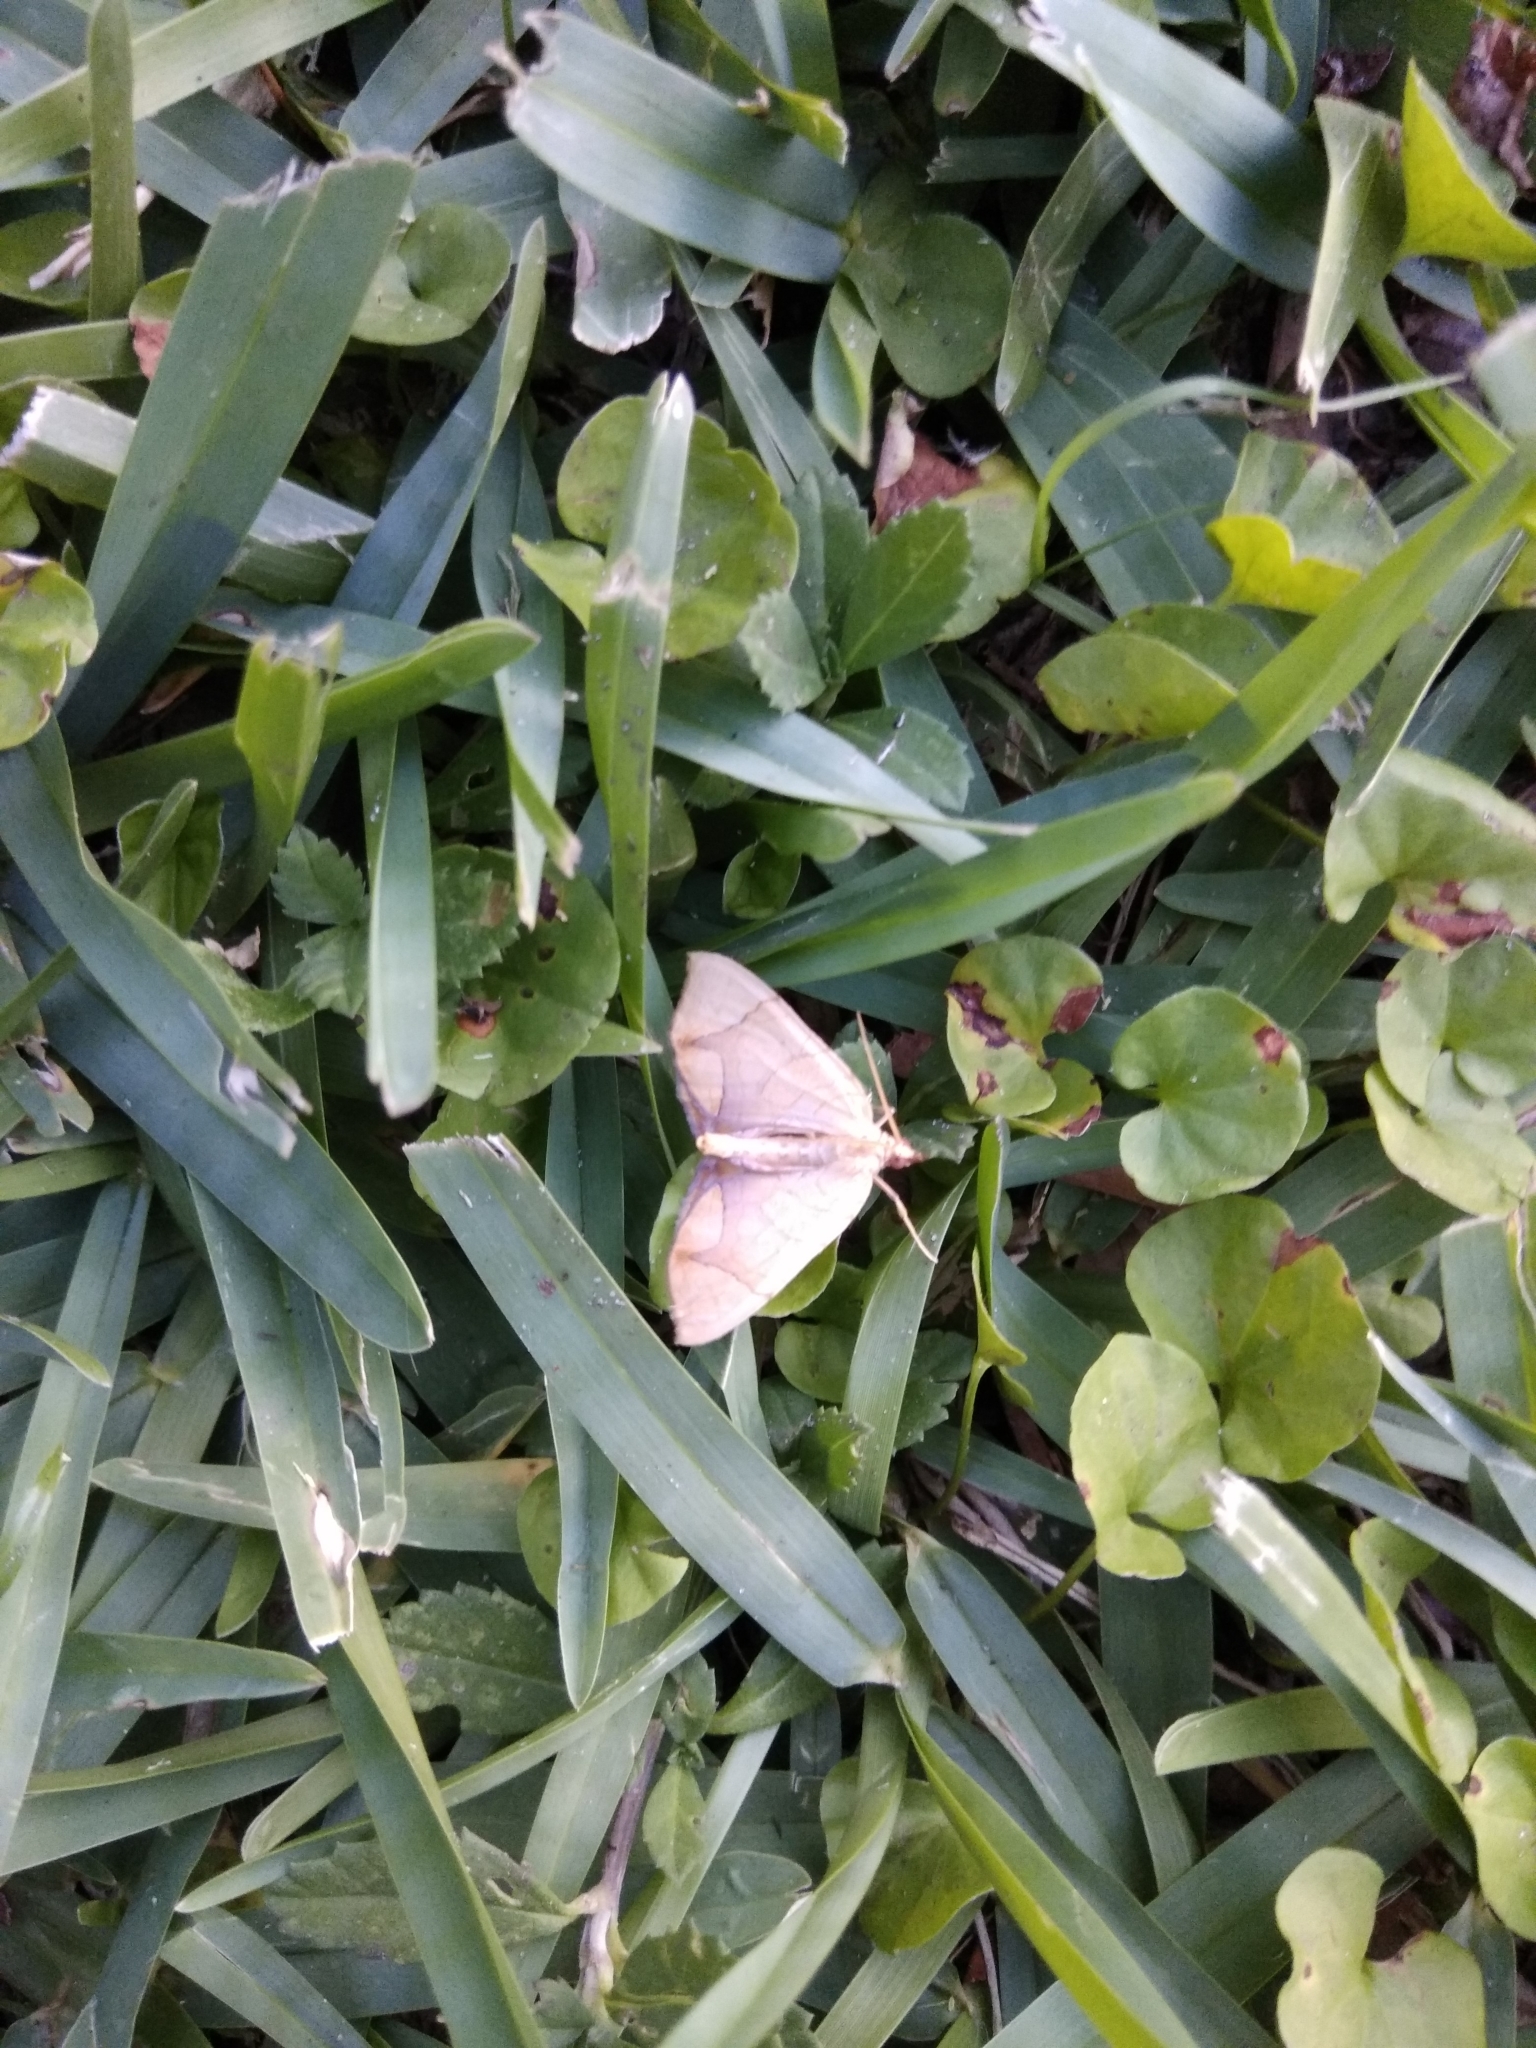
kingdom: Animalia
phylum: Arthropoda
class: Insecta
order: Lepidoptera
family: Geometridae
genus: Eulithis
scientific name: Eulithis
